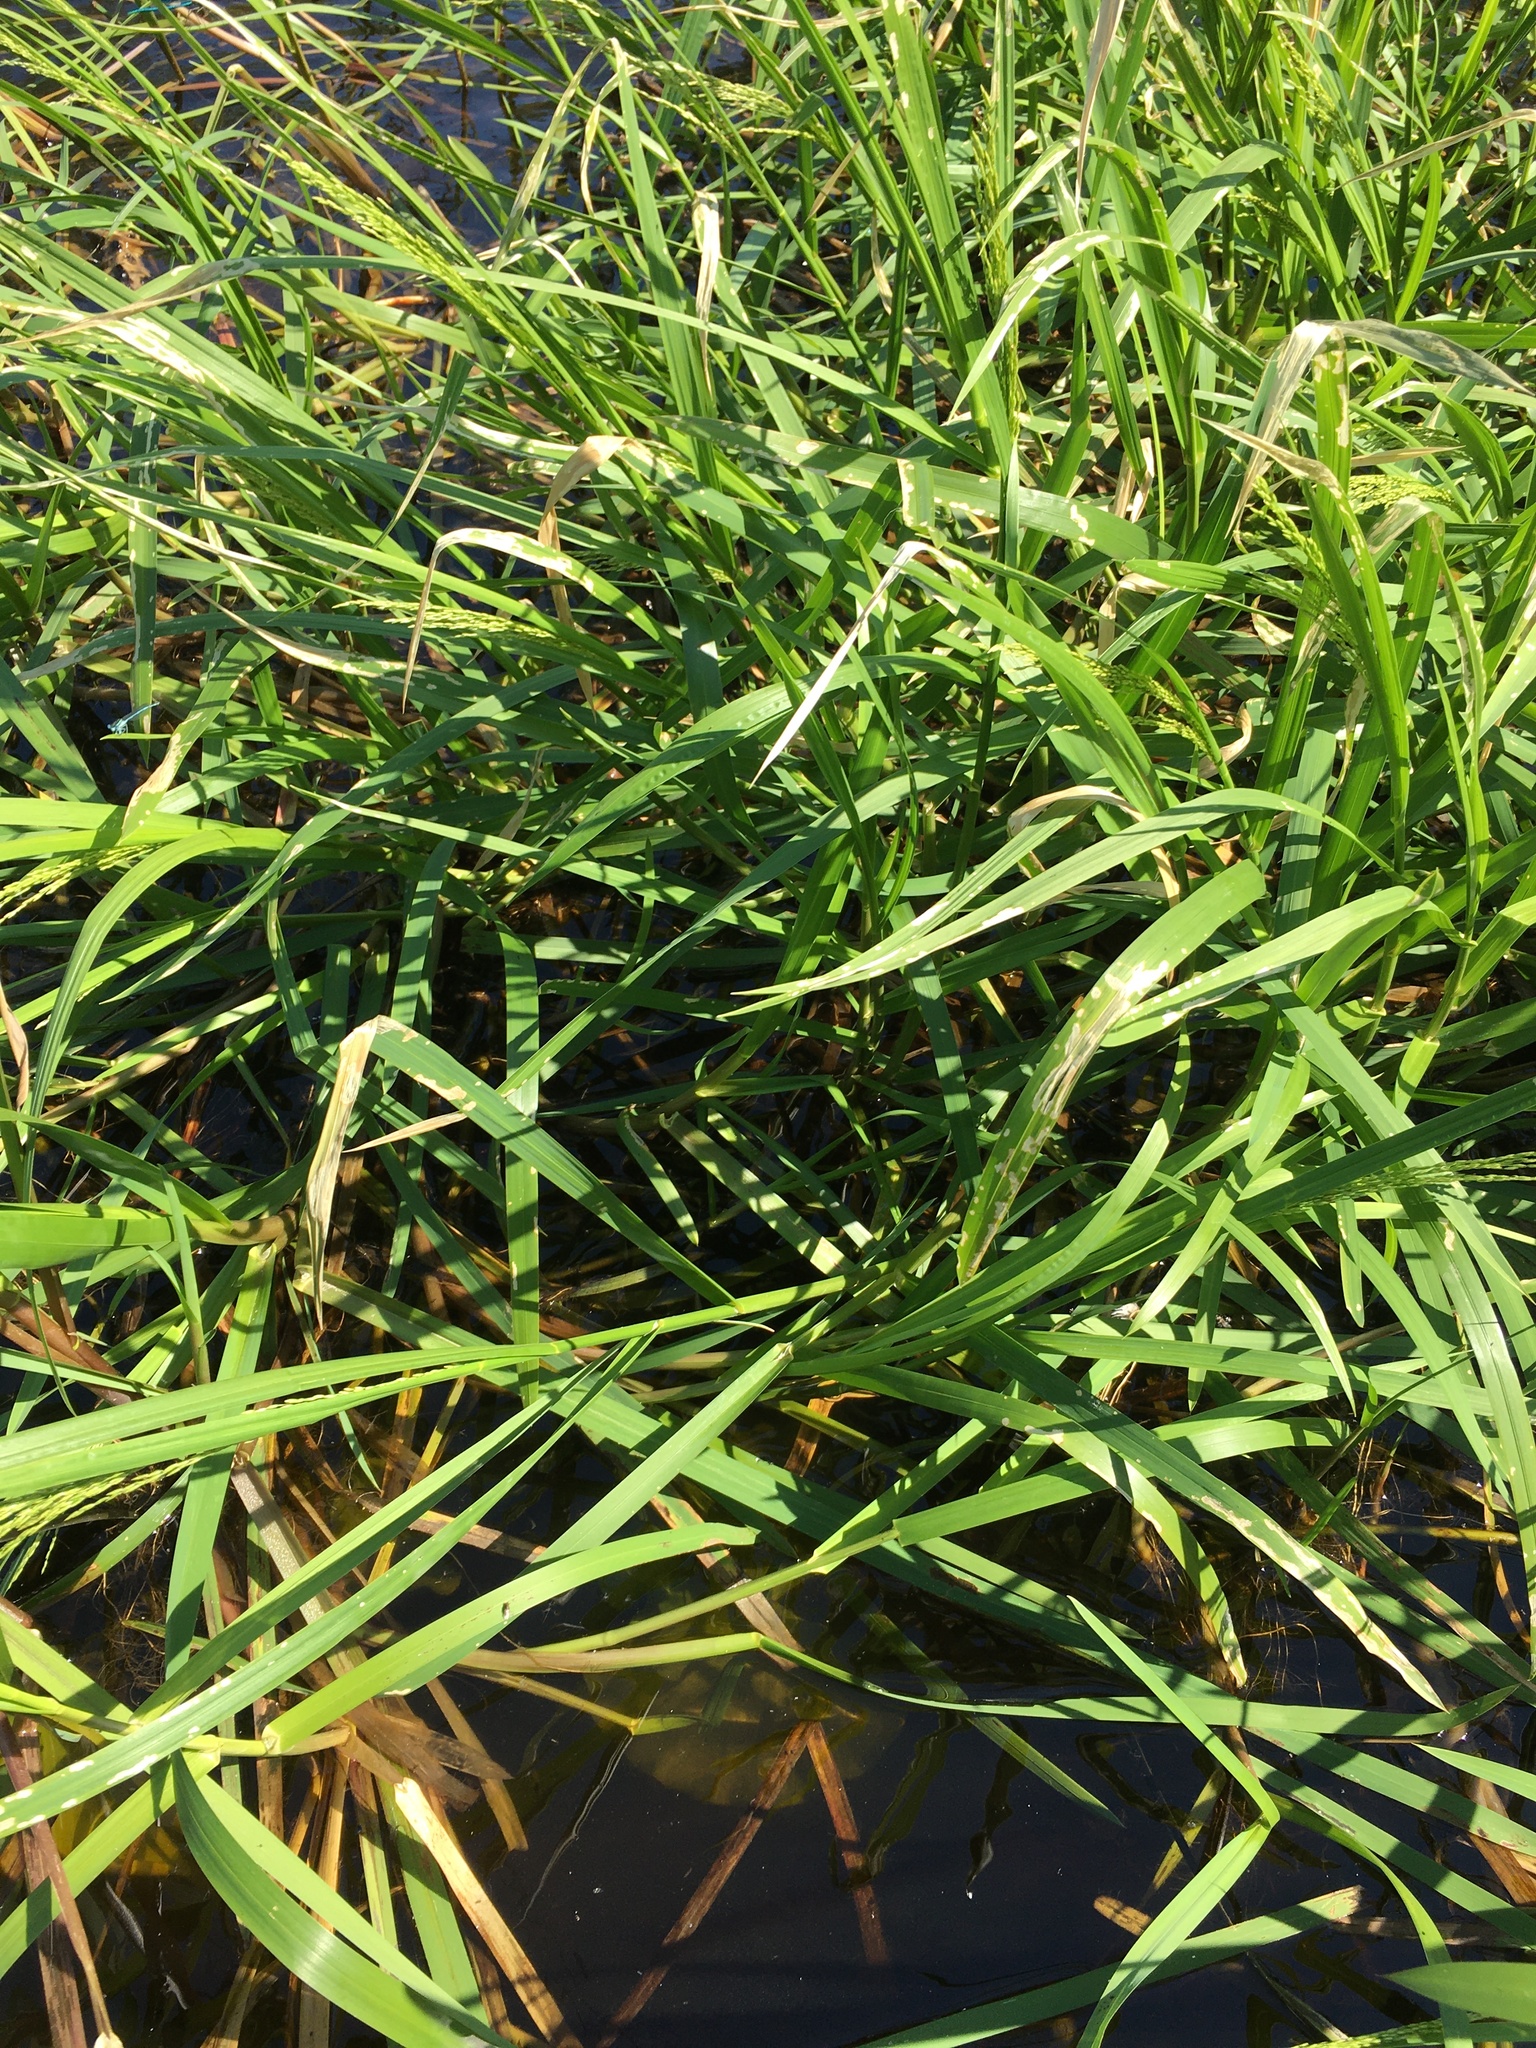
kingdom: Plantae
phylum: Tracheophyta
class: Liliopsida
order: Poales
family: Poaceae
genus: Glyceria
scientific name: Glyceria maxima
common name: Reed mannagrass
